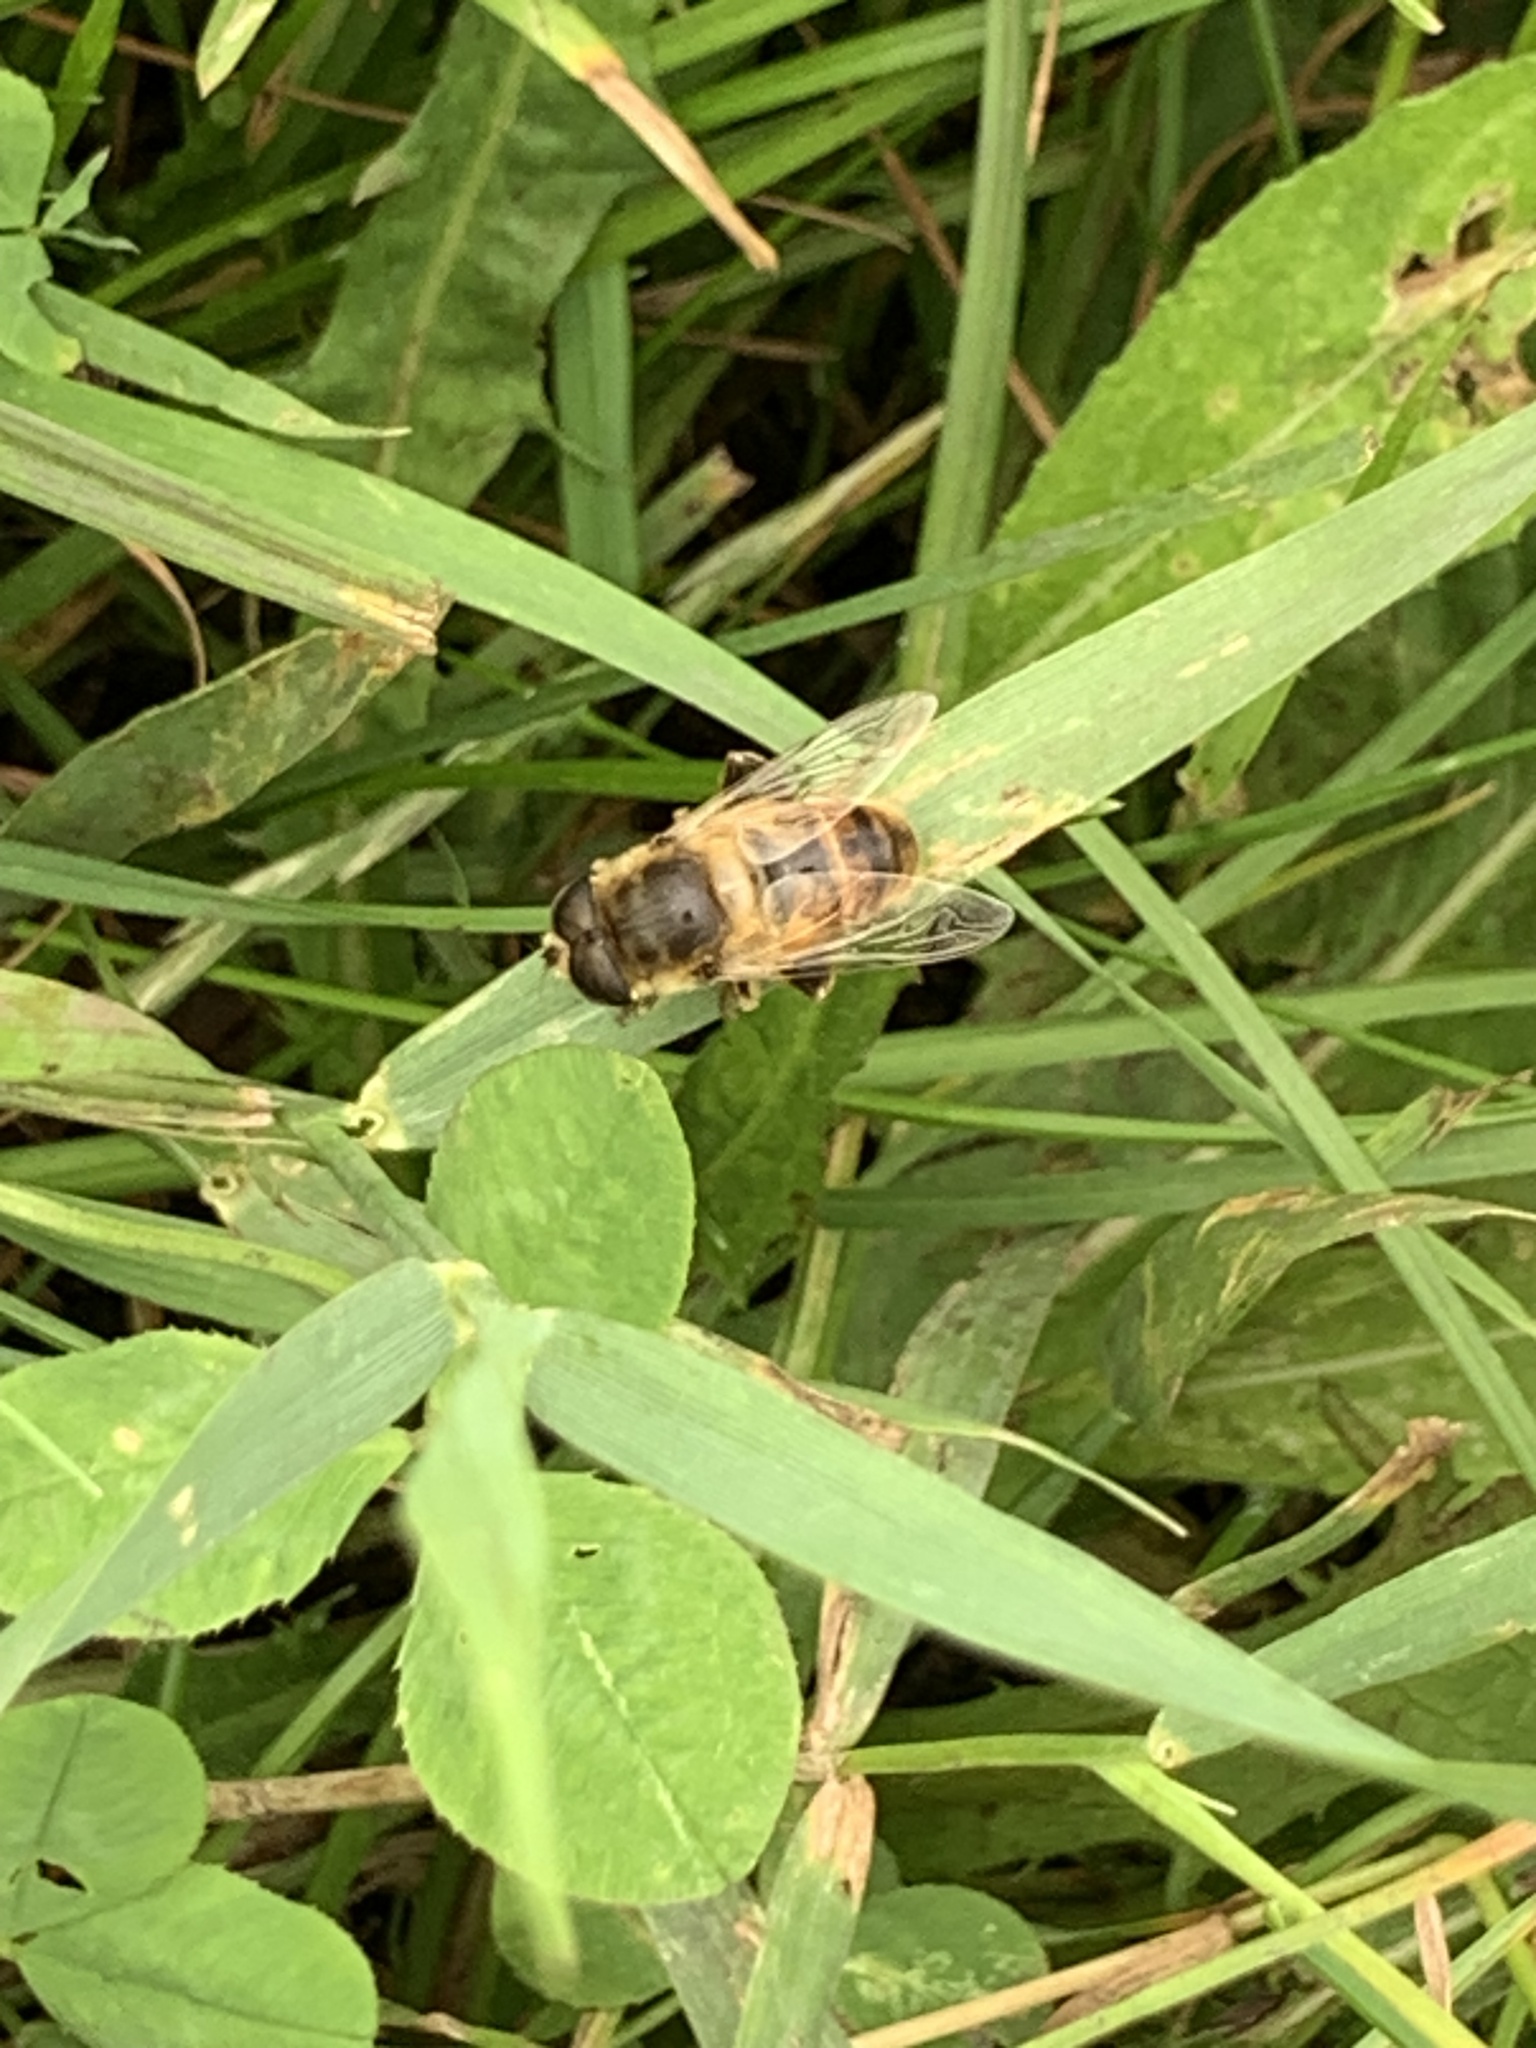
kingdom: Animalia
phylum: Arthropoda
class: Insecta
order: Diptera
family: Syrphidae
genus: Eristalis
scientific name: Eristalis tenax
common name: Drone fly
